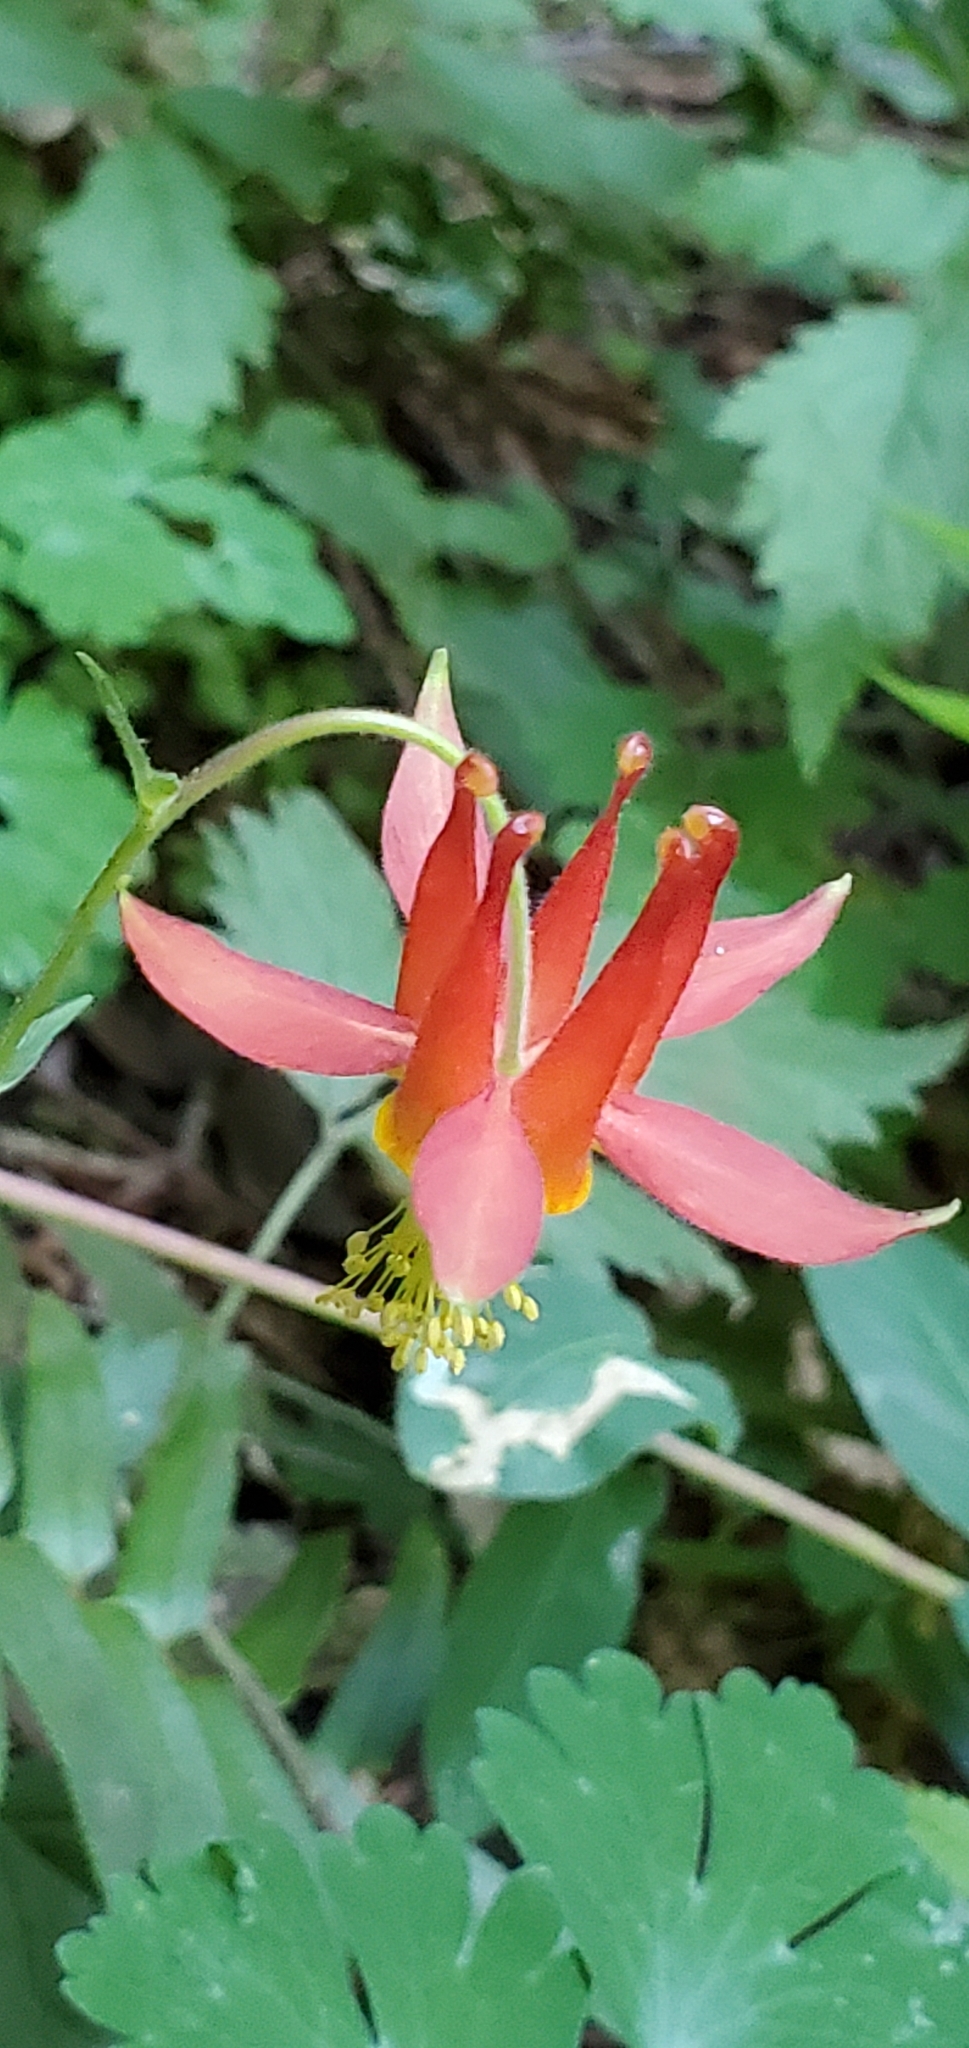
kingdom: Plantae
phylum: Tracheophyta
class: Magnoliopsida
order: Ranunculales
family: Ranunculaceae
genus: Aquilegia
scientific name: Aquilegia formosa
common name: Sitka columbine
